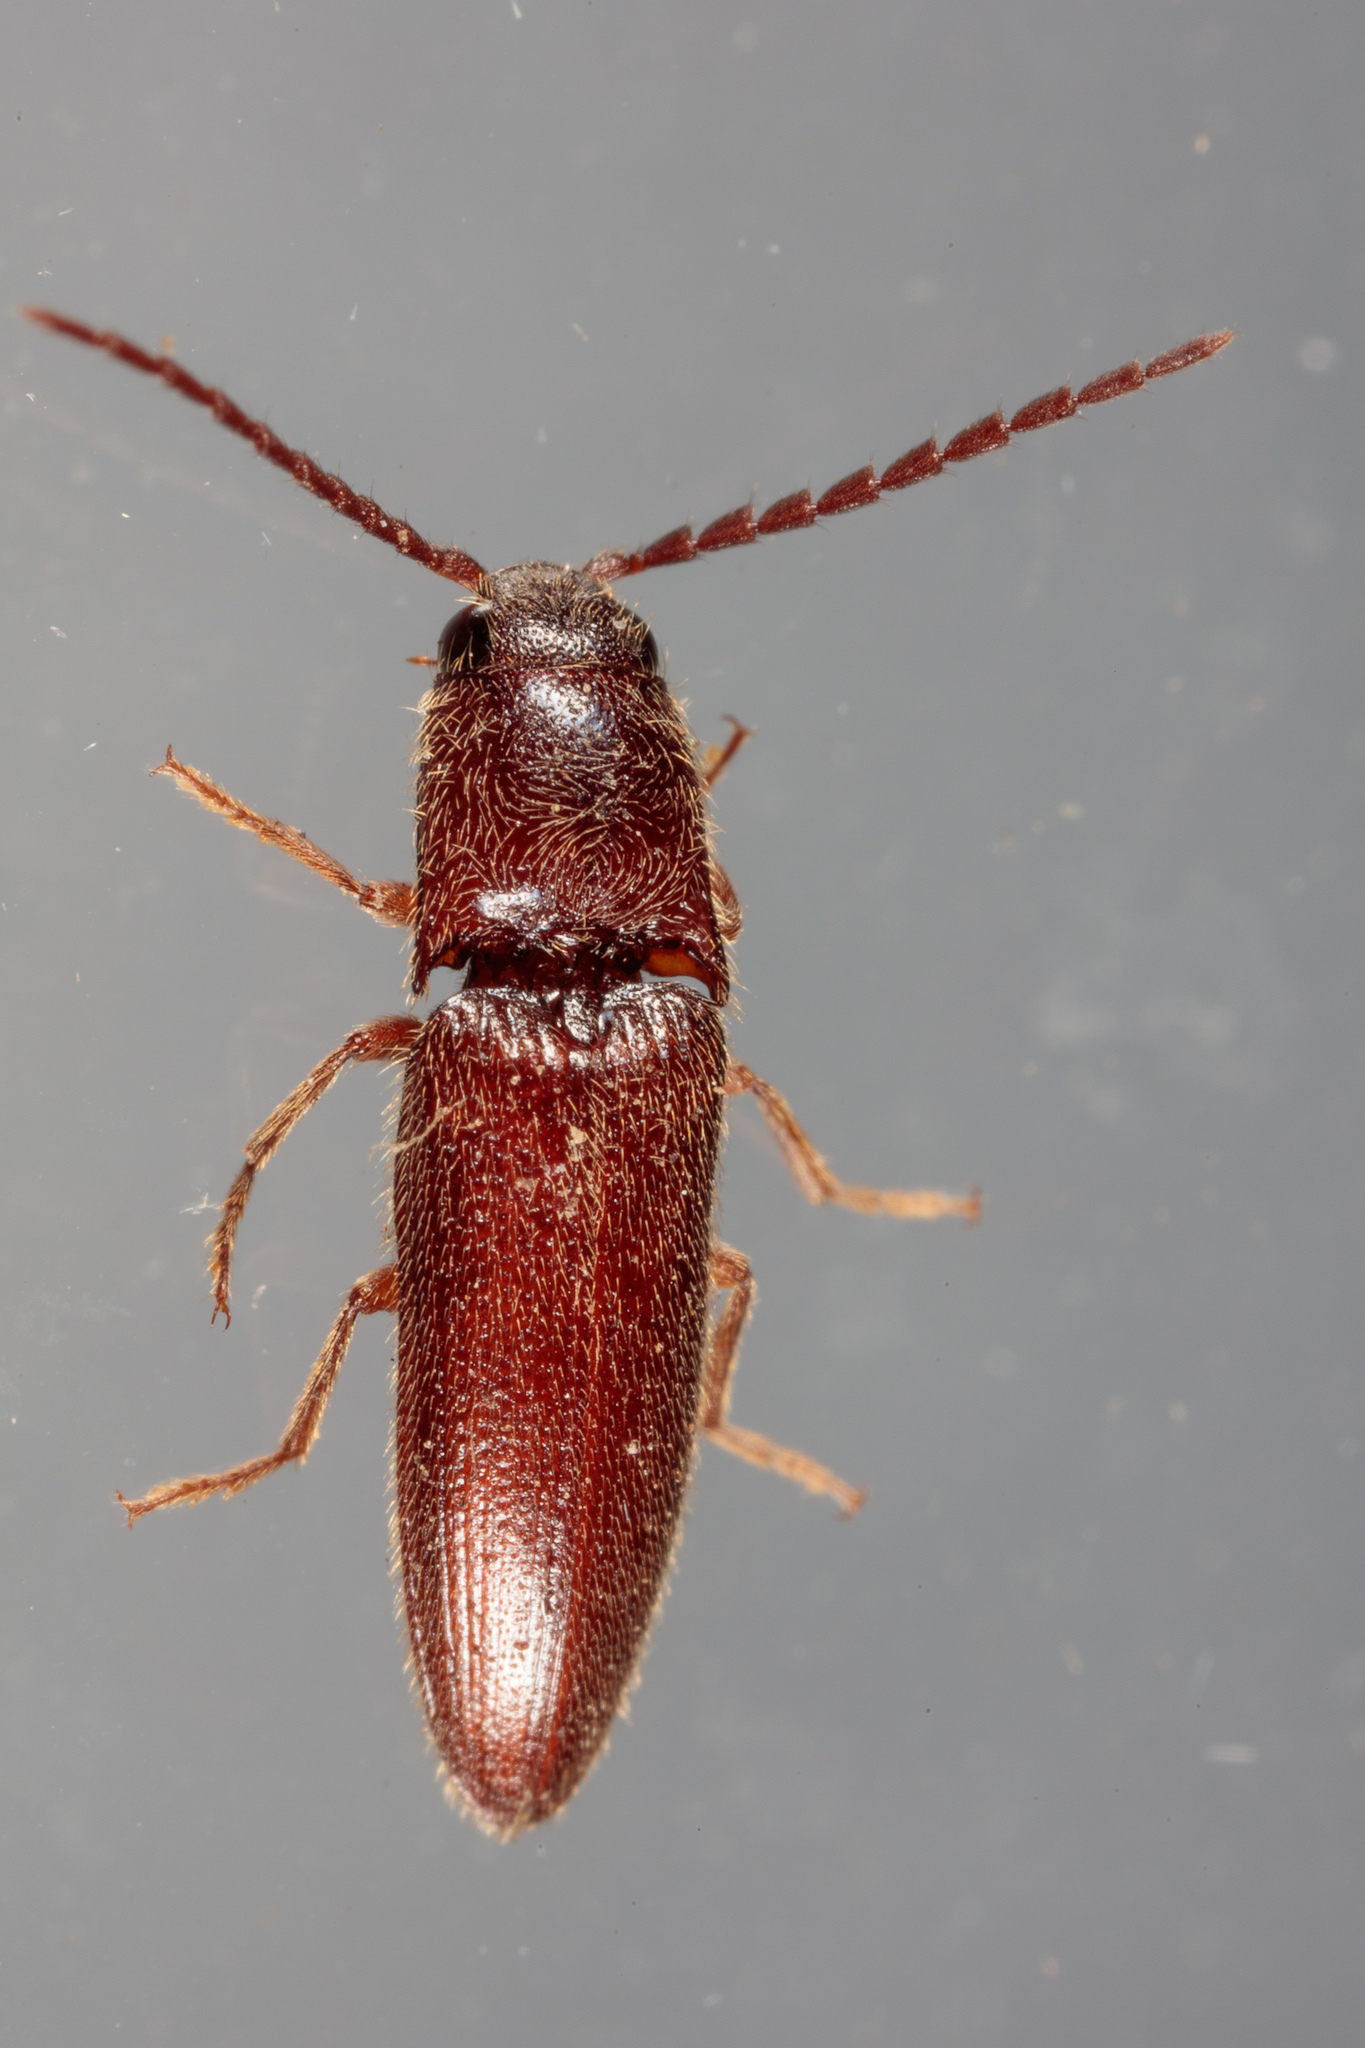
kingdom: Animalia
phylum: Arthropoda
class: Insecta
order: Coleoptera
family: Elateridae
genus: Dipropus
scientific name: Dipropus
